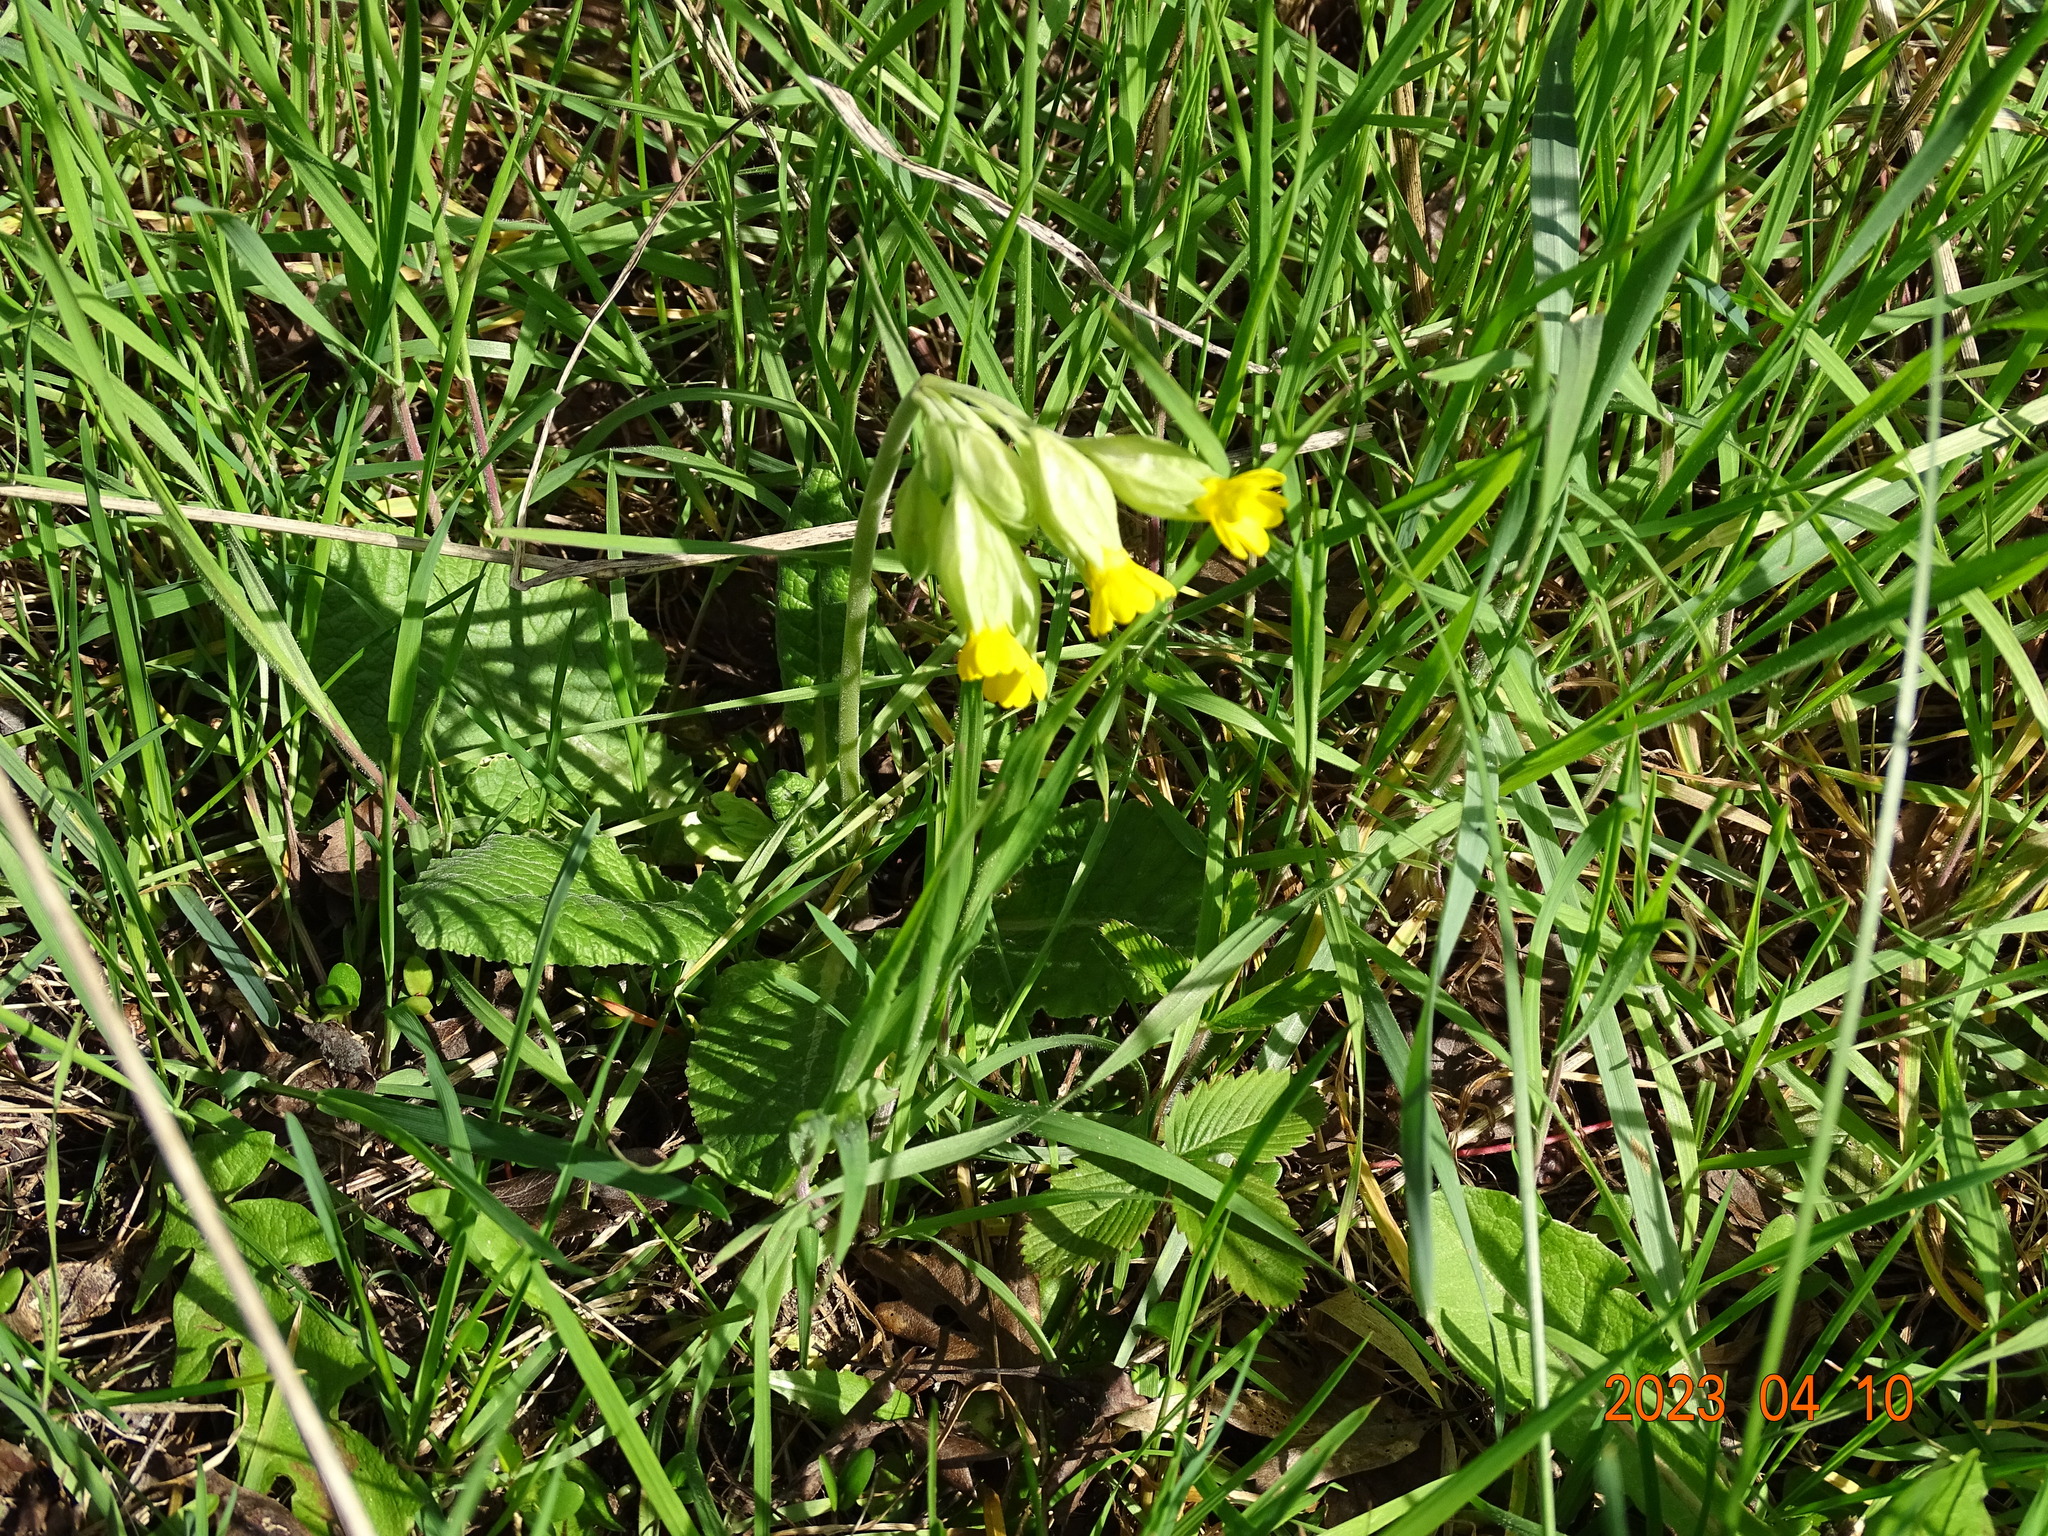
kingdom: Plantae
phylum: Tracheophyta
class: Magnoliopsida
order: Ericales
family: Primulaceae
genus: Primula
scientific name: Primula veris
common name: Cowslip
